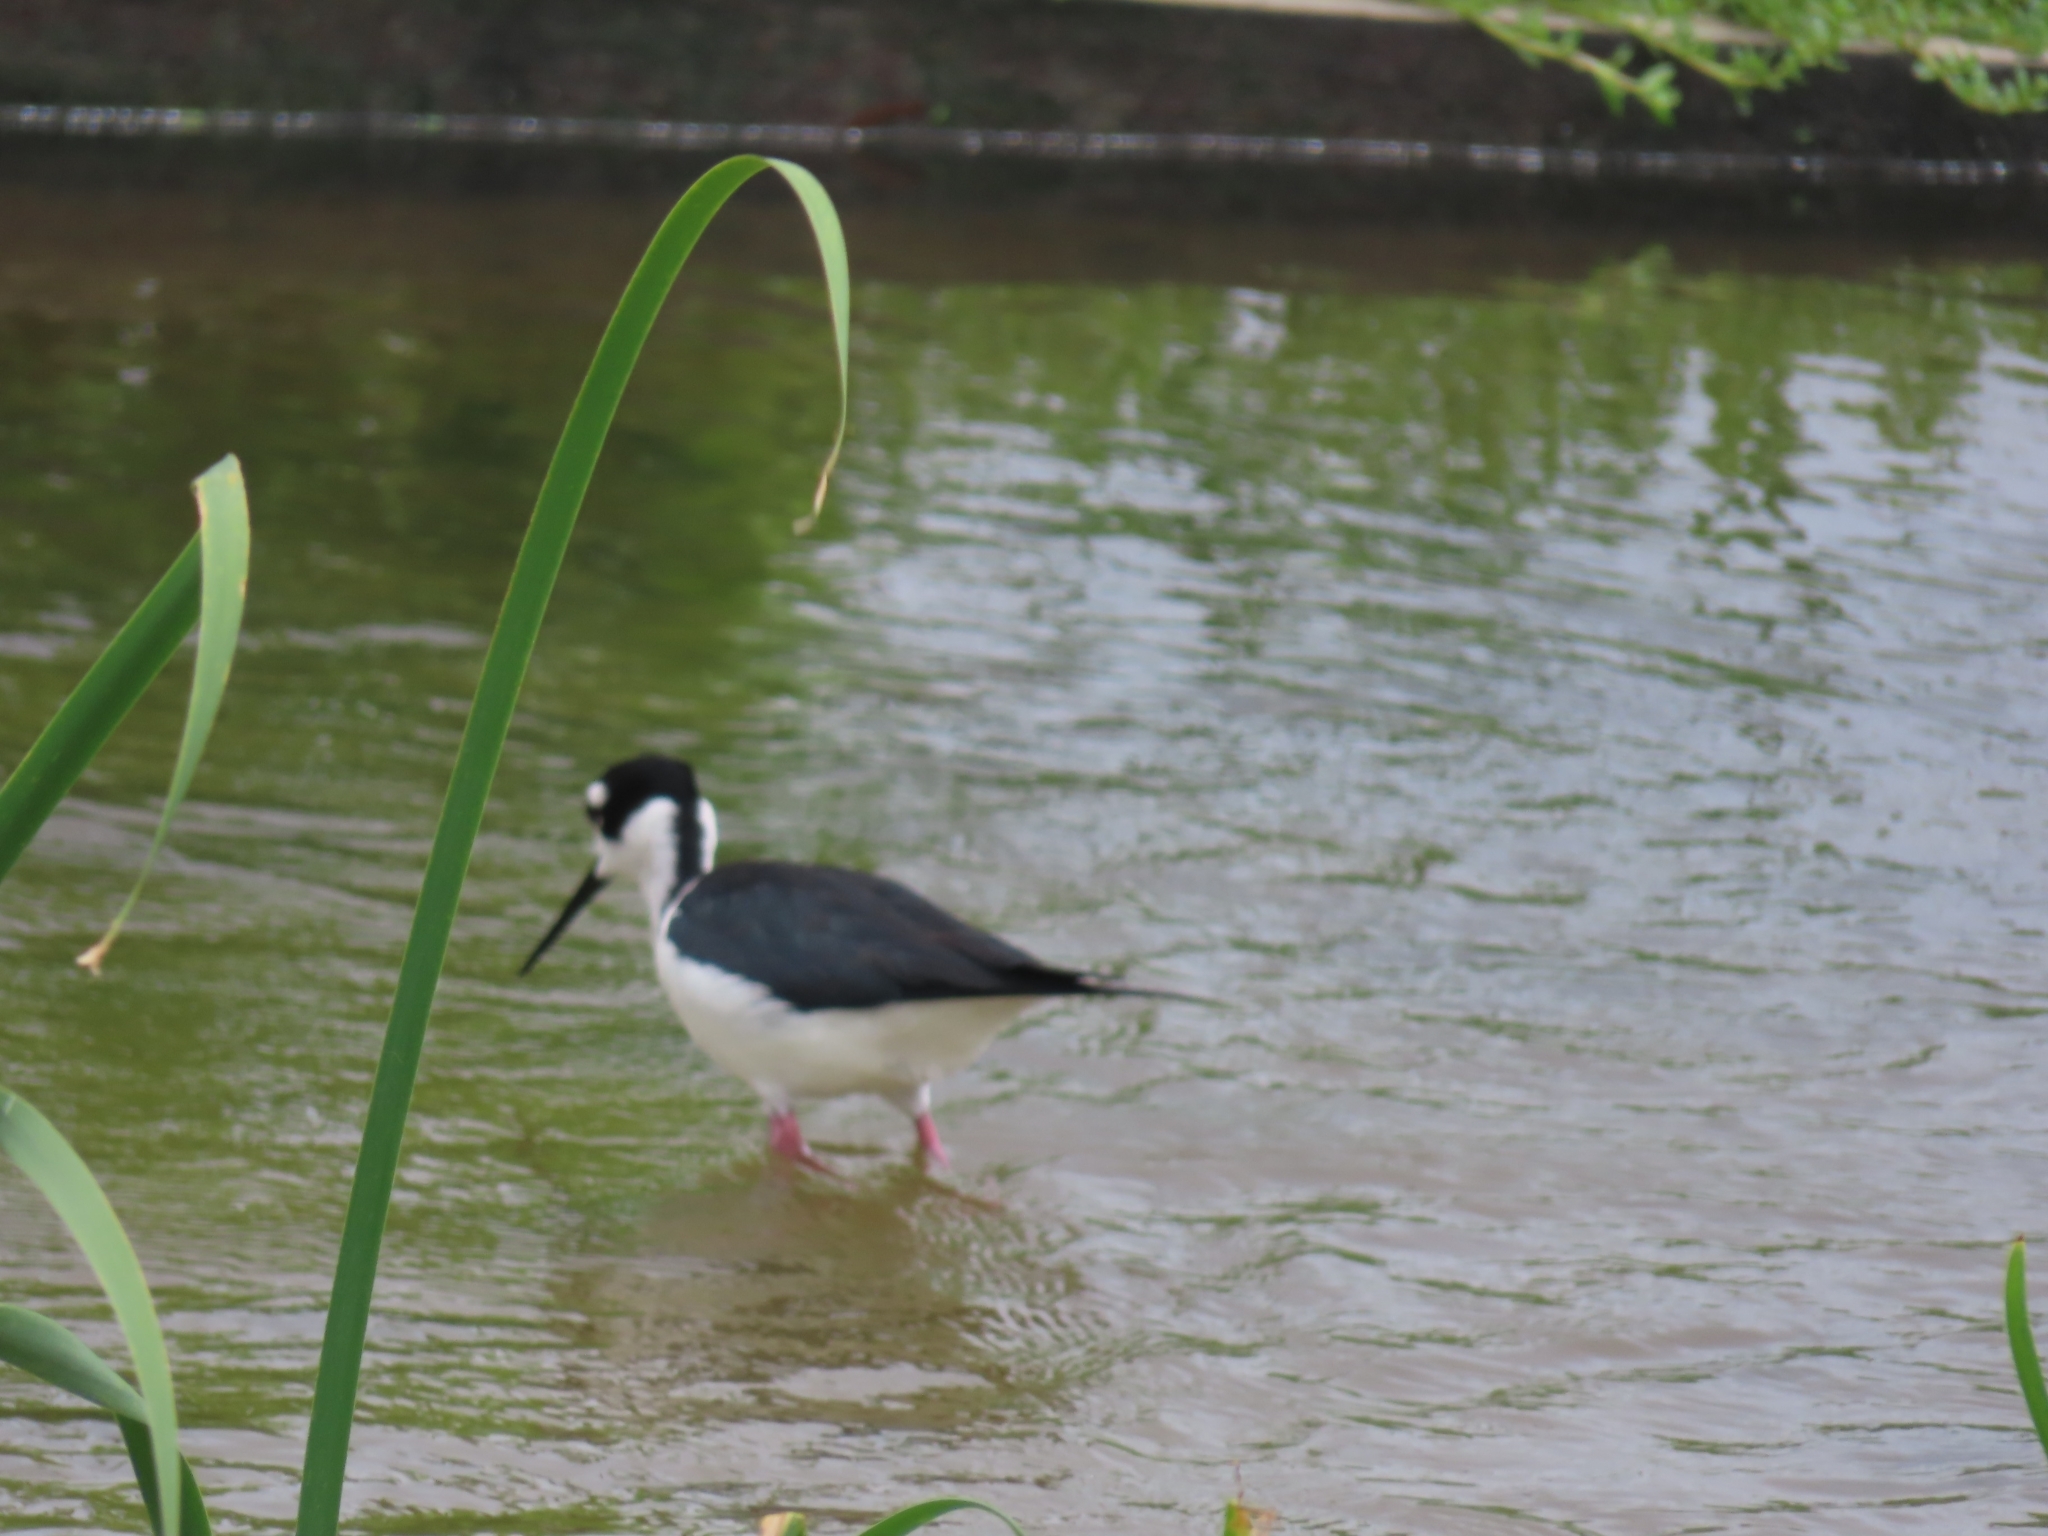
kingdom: Animalia
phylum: Chordata
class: Aves
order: Charadriiformes
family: Recurvirostridae
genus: Himantopus
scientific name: Himantopus mexicanus
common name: Black-necked stilt
